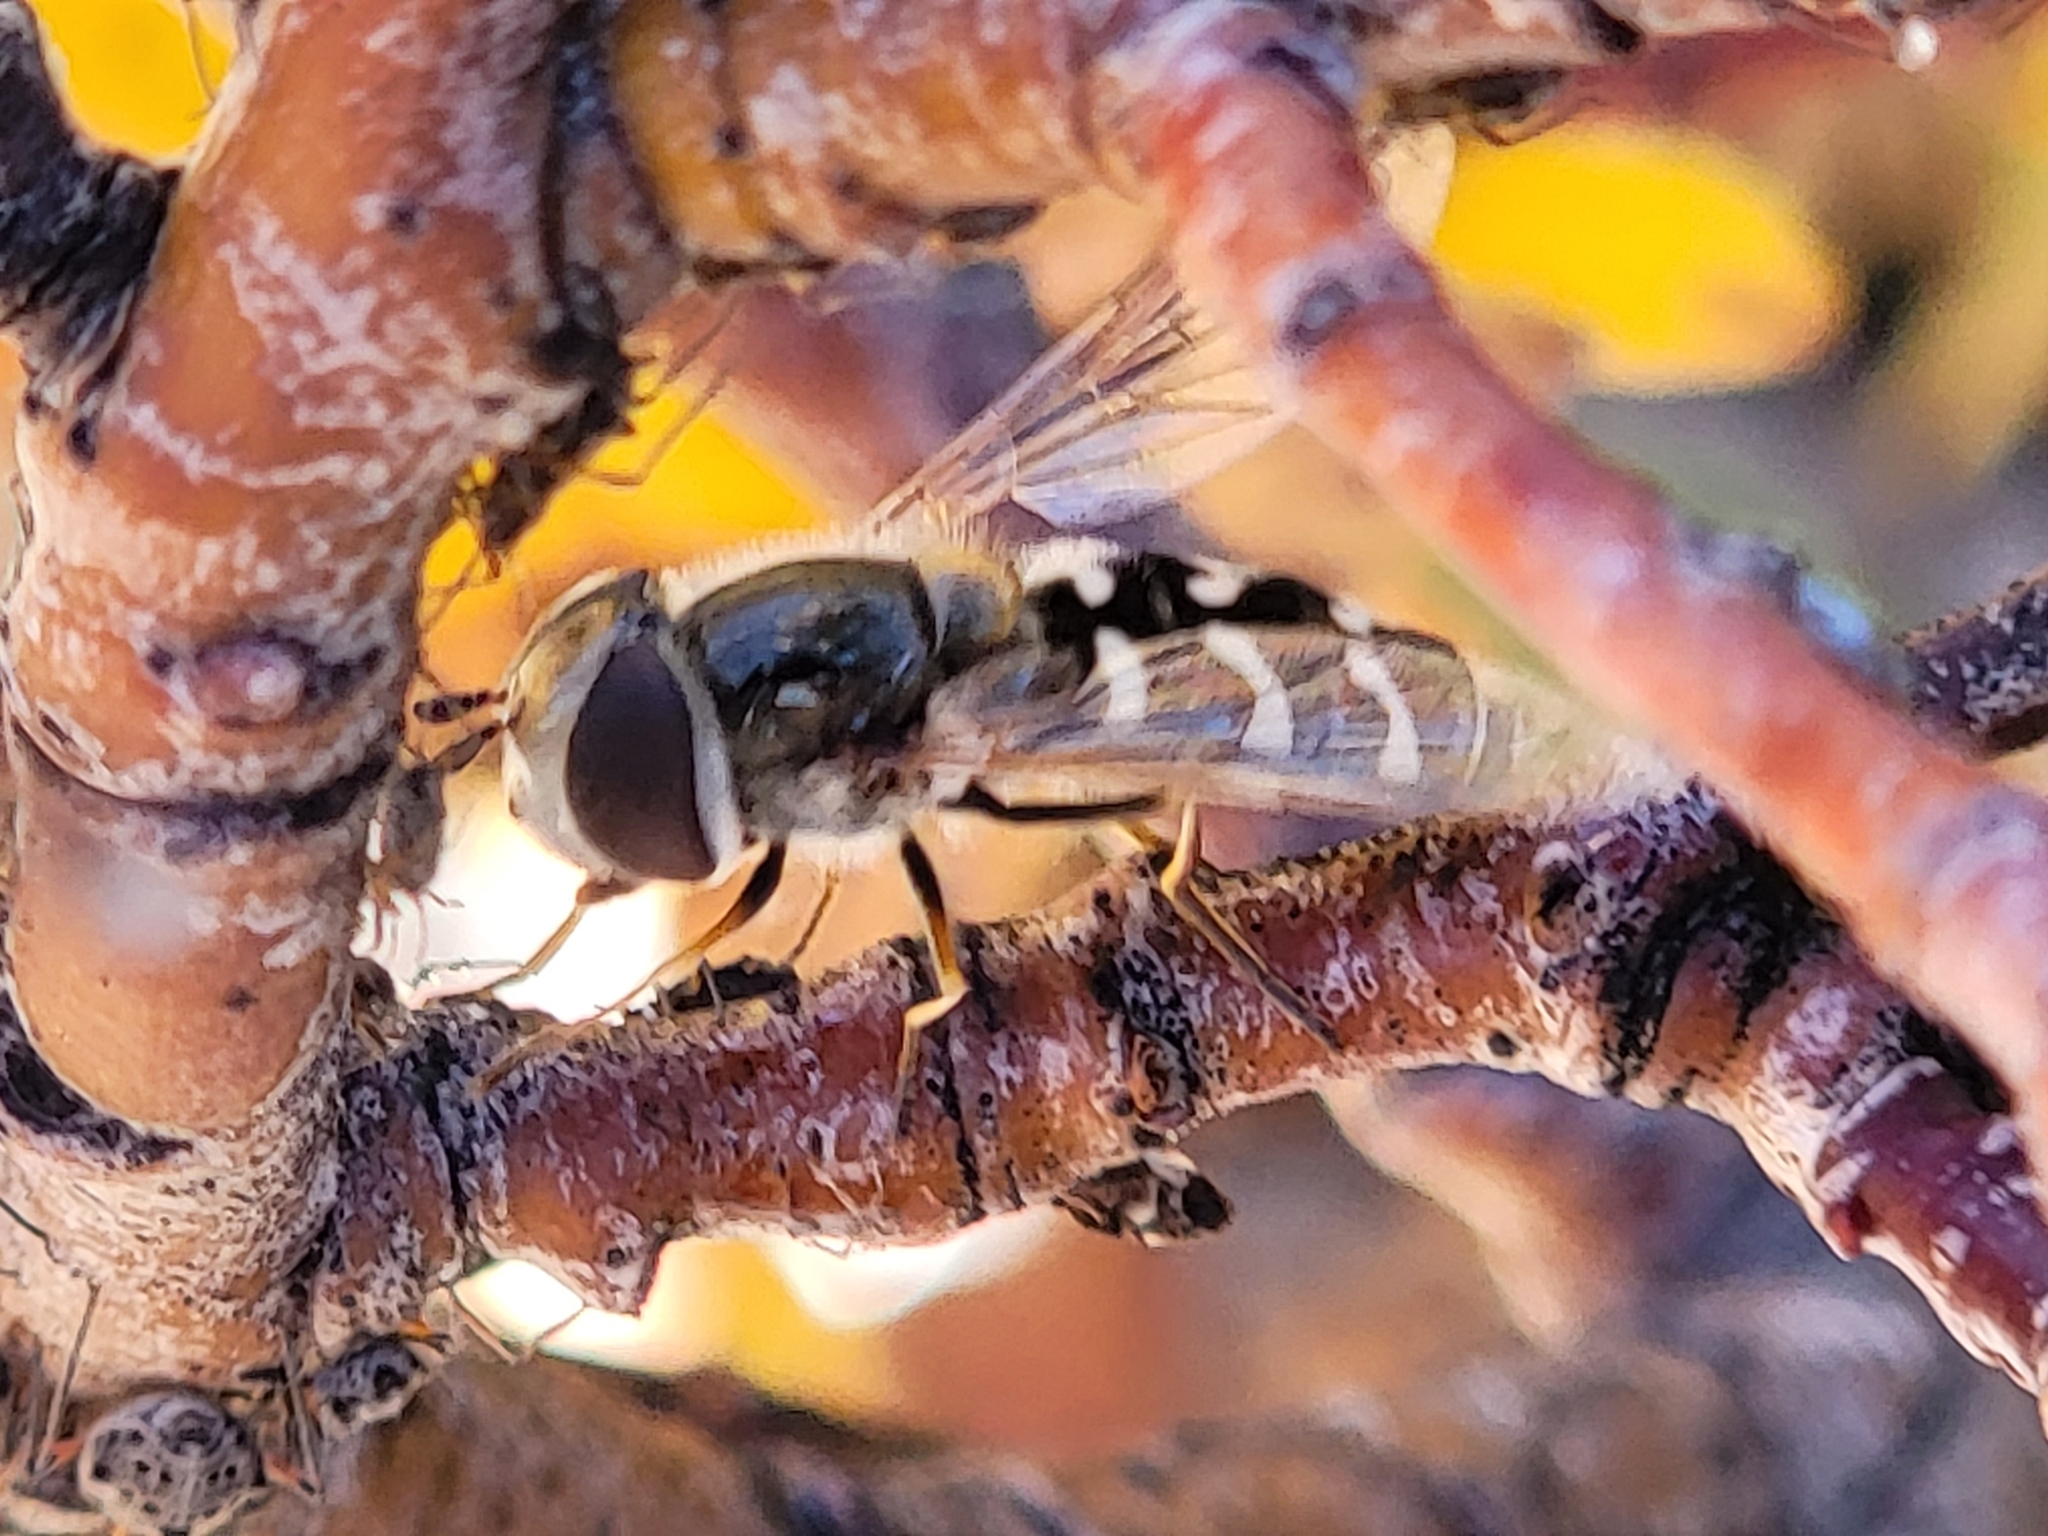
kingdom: Animalia
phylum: Arthropoda
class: Insecta
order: Diptera
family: Syrphidae
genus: Scaeva
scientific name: Scaeva affinis
